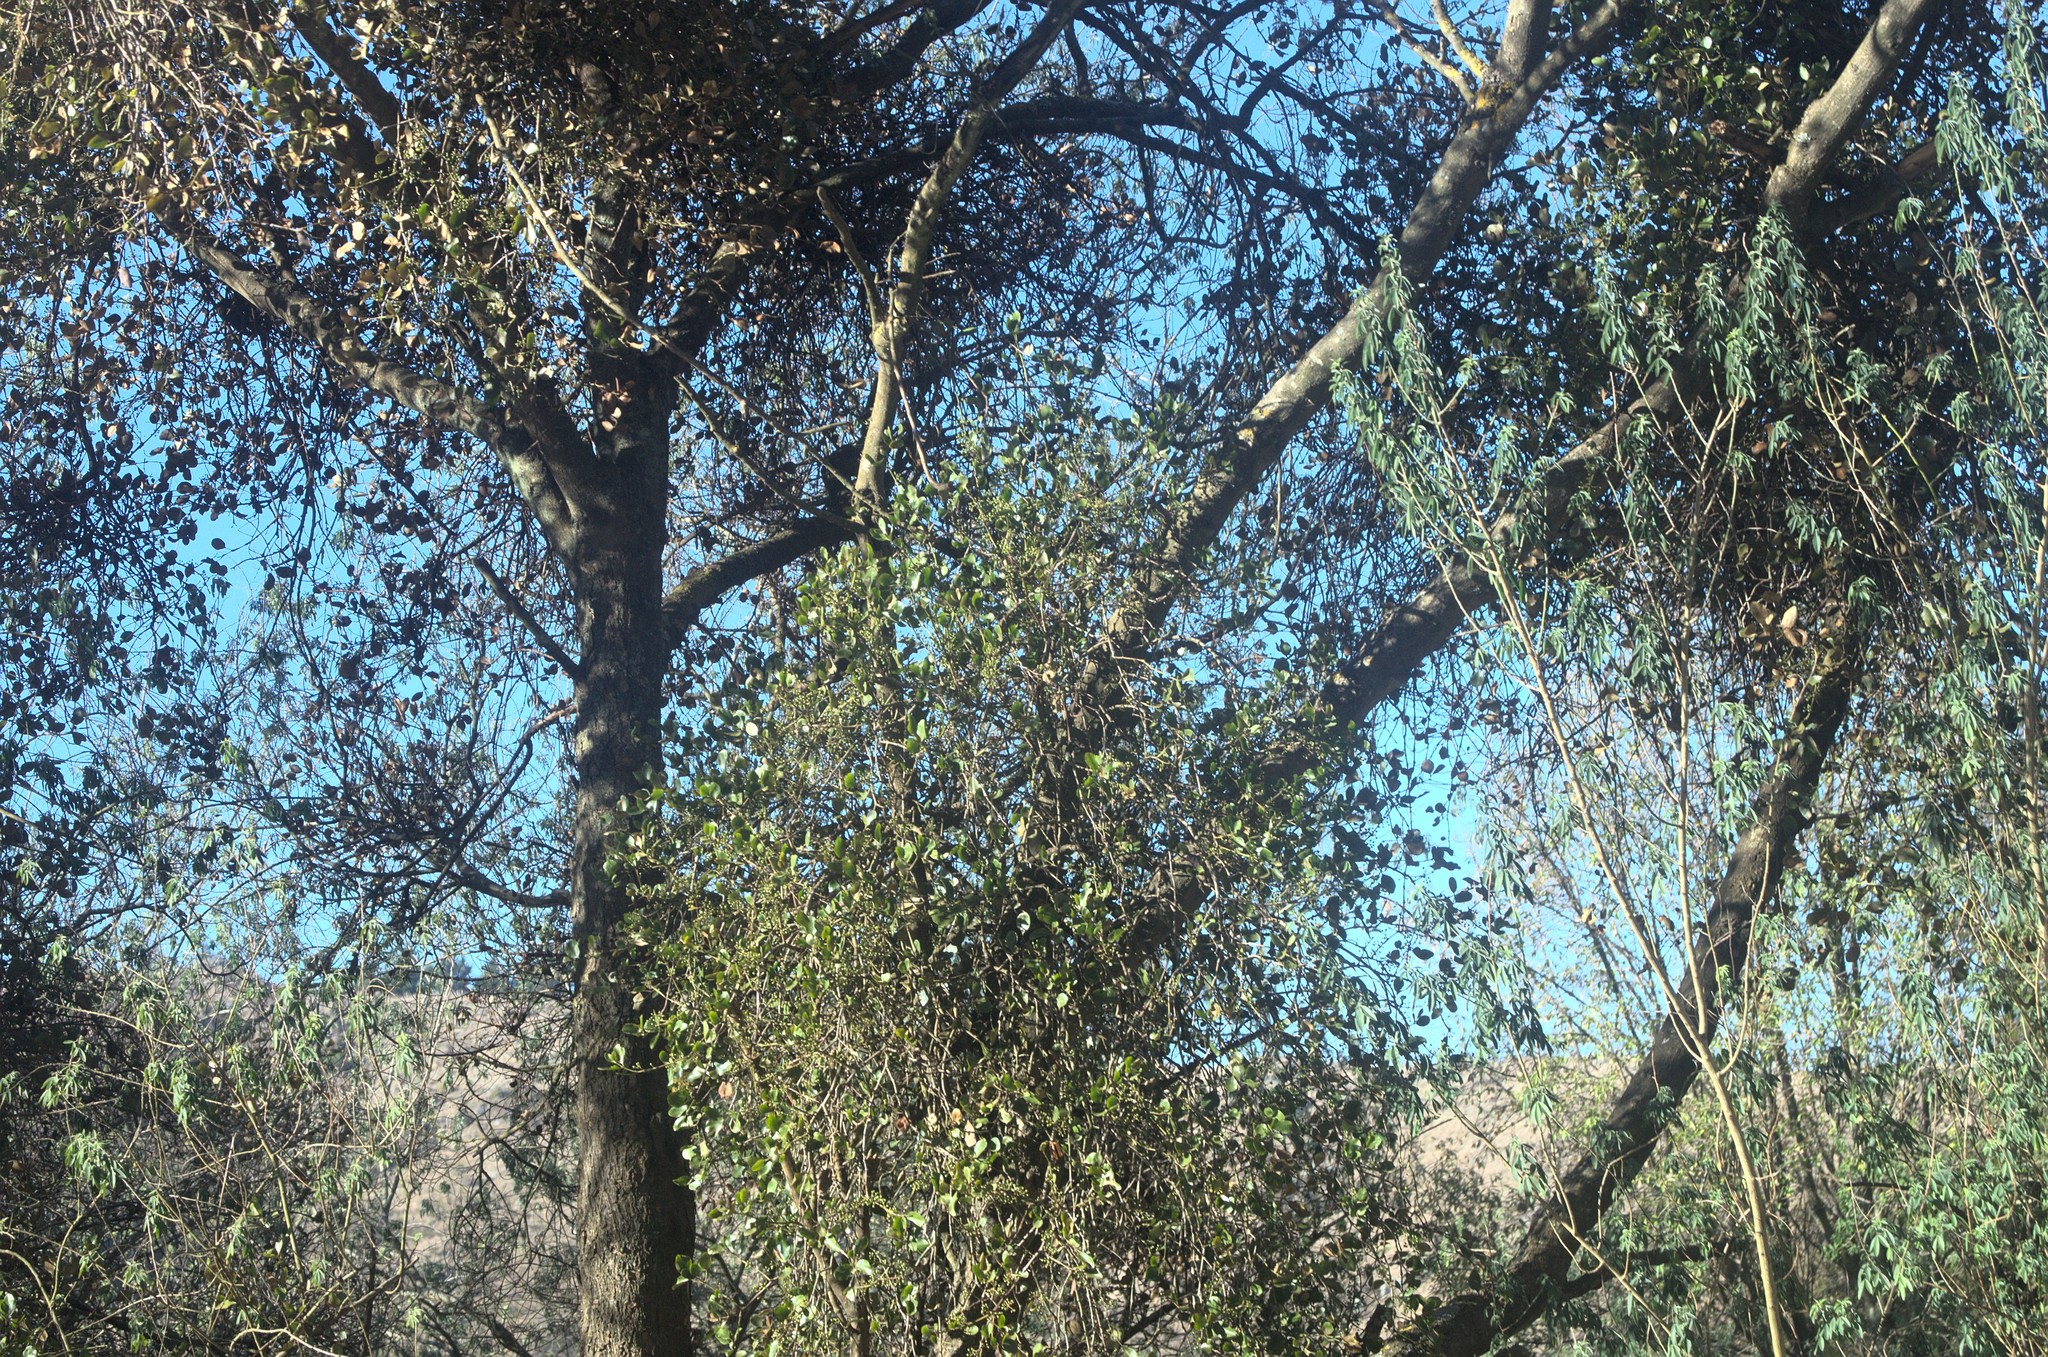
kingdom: Plantae
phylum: Tracheophyta
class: Magnoliopsida
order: Santalales
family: Loranthaceae
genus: Ileostylus
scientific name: Ileostylus micranthus
